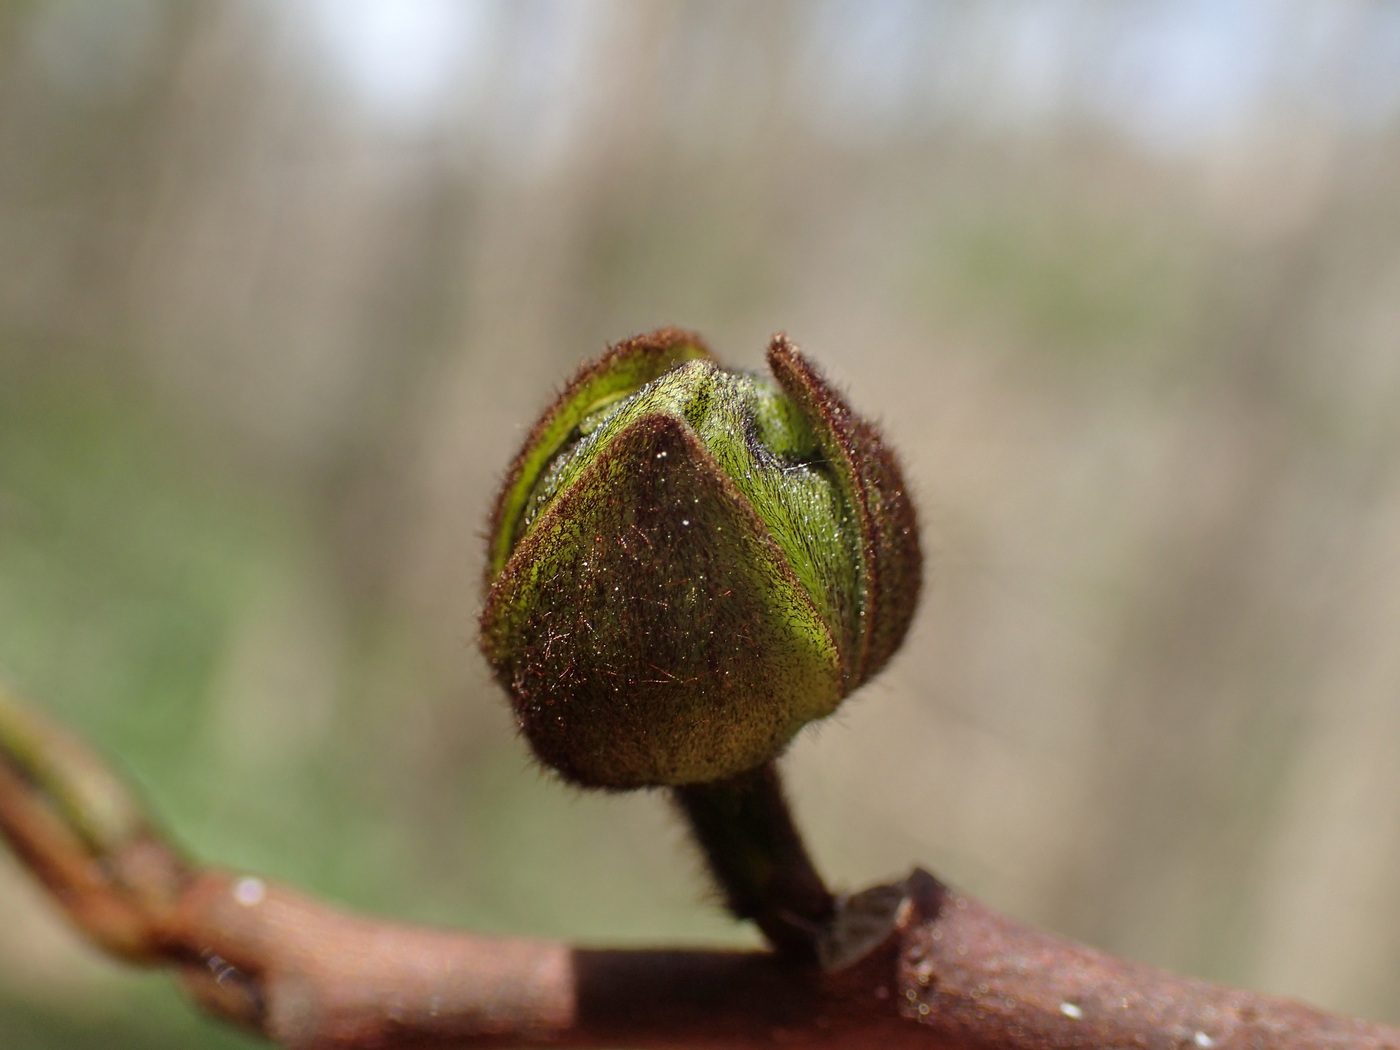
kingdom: Plantae
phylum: Tracheophyta
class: Magnoliopsida
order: Magnoliales
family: Annonaceae
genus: Asimina
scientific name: Asimina triloba
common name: Dog-banana
